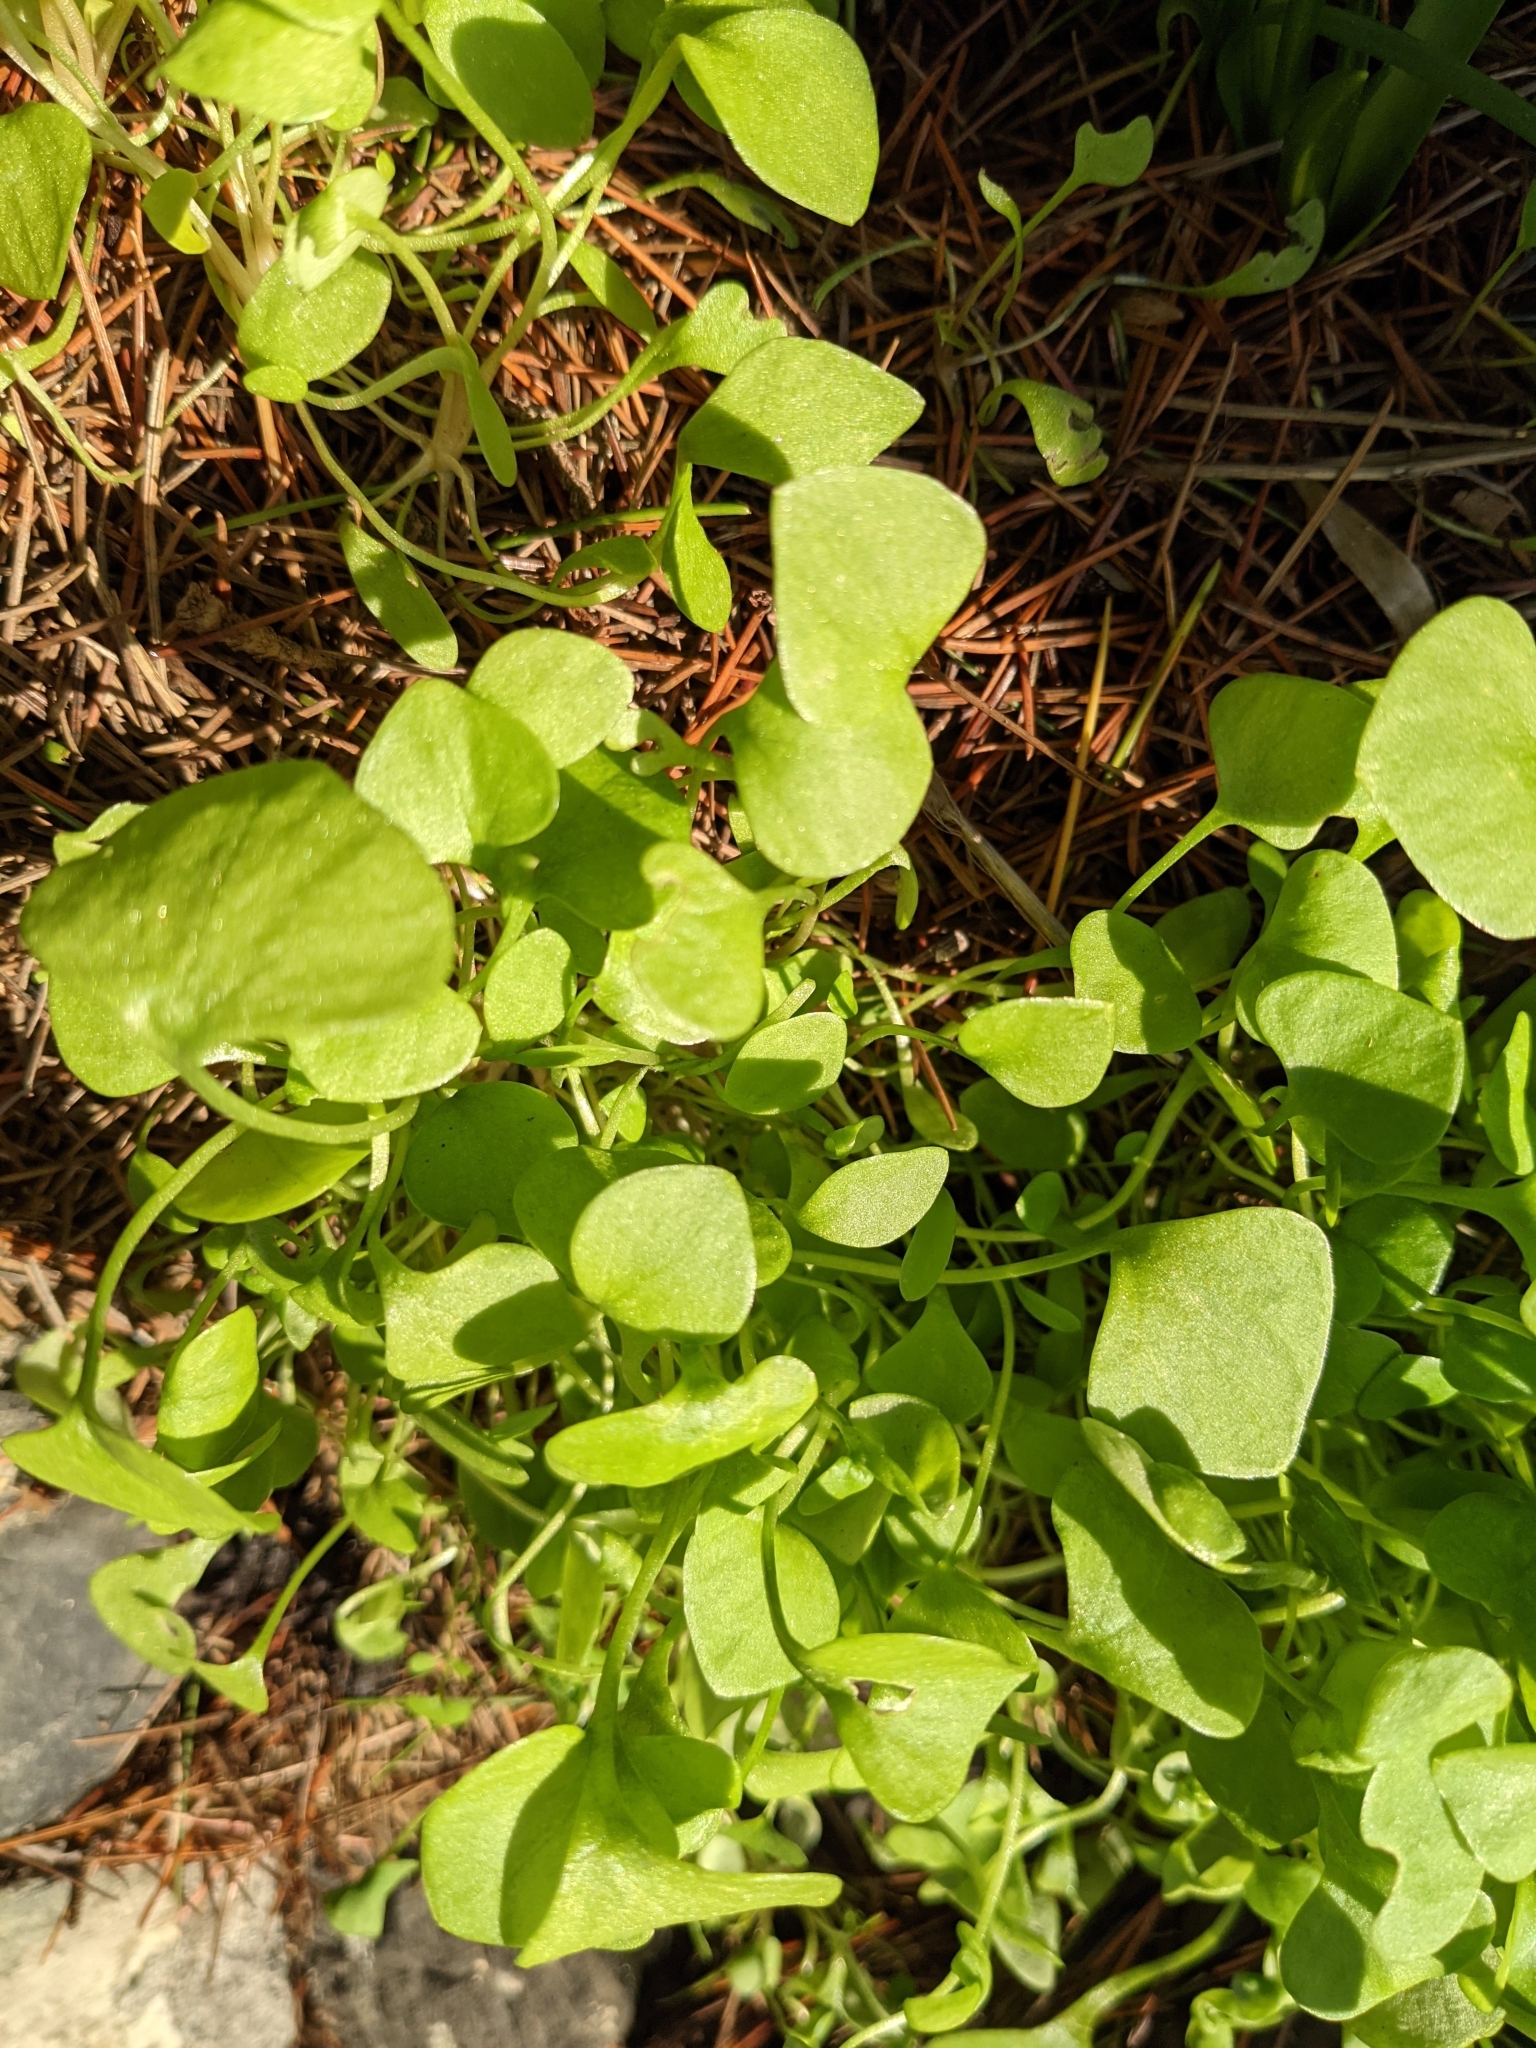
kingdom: Plantae
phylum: Tracheophyta
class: Magnoliopsida
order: Caryophyllales
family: Montiaceae
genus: Claytonia
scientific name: Claytonia perfoliata
